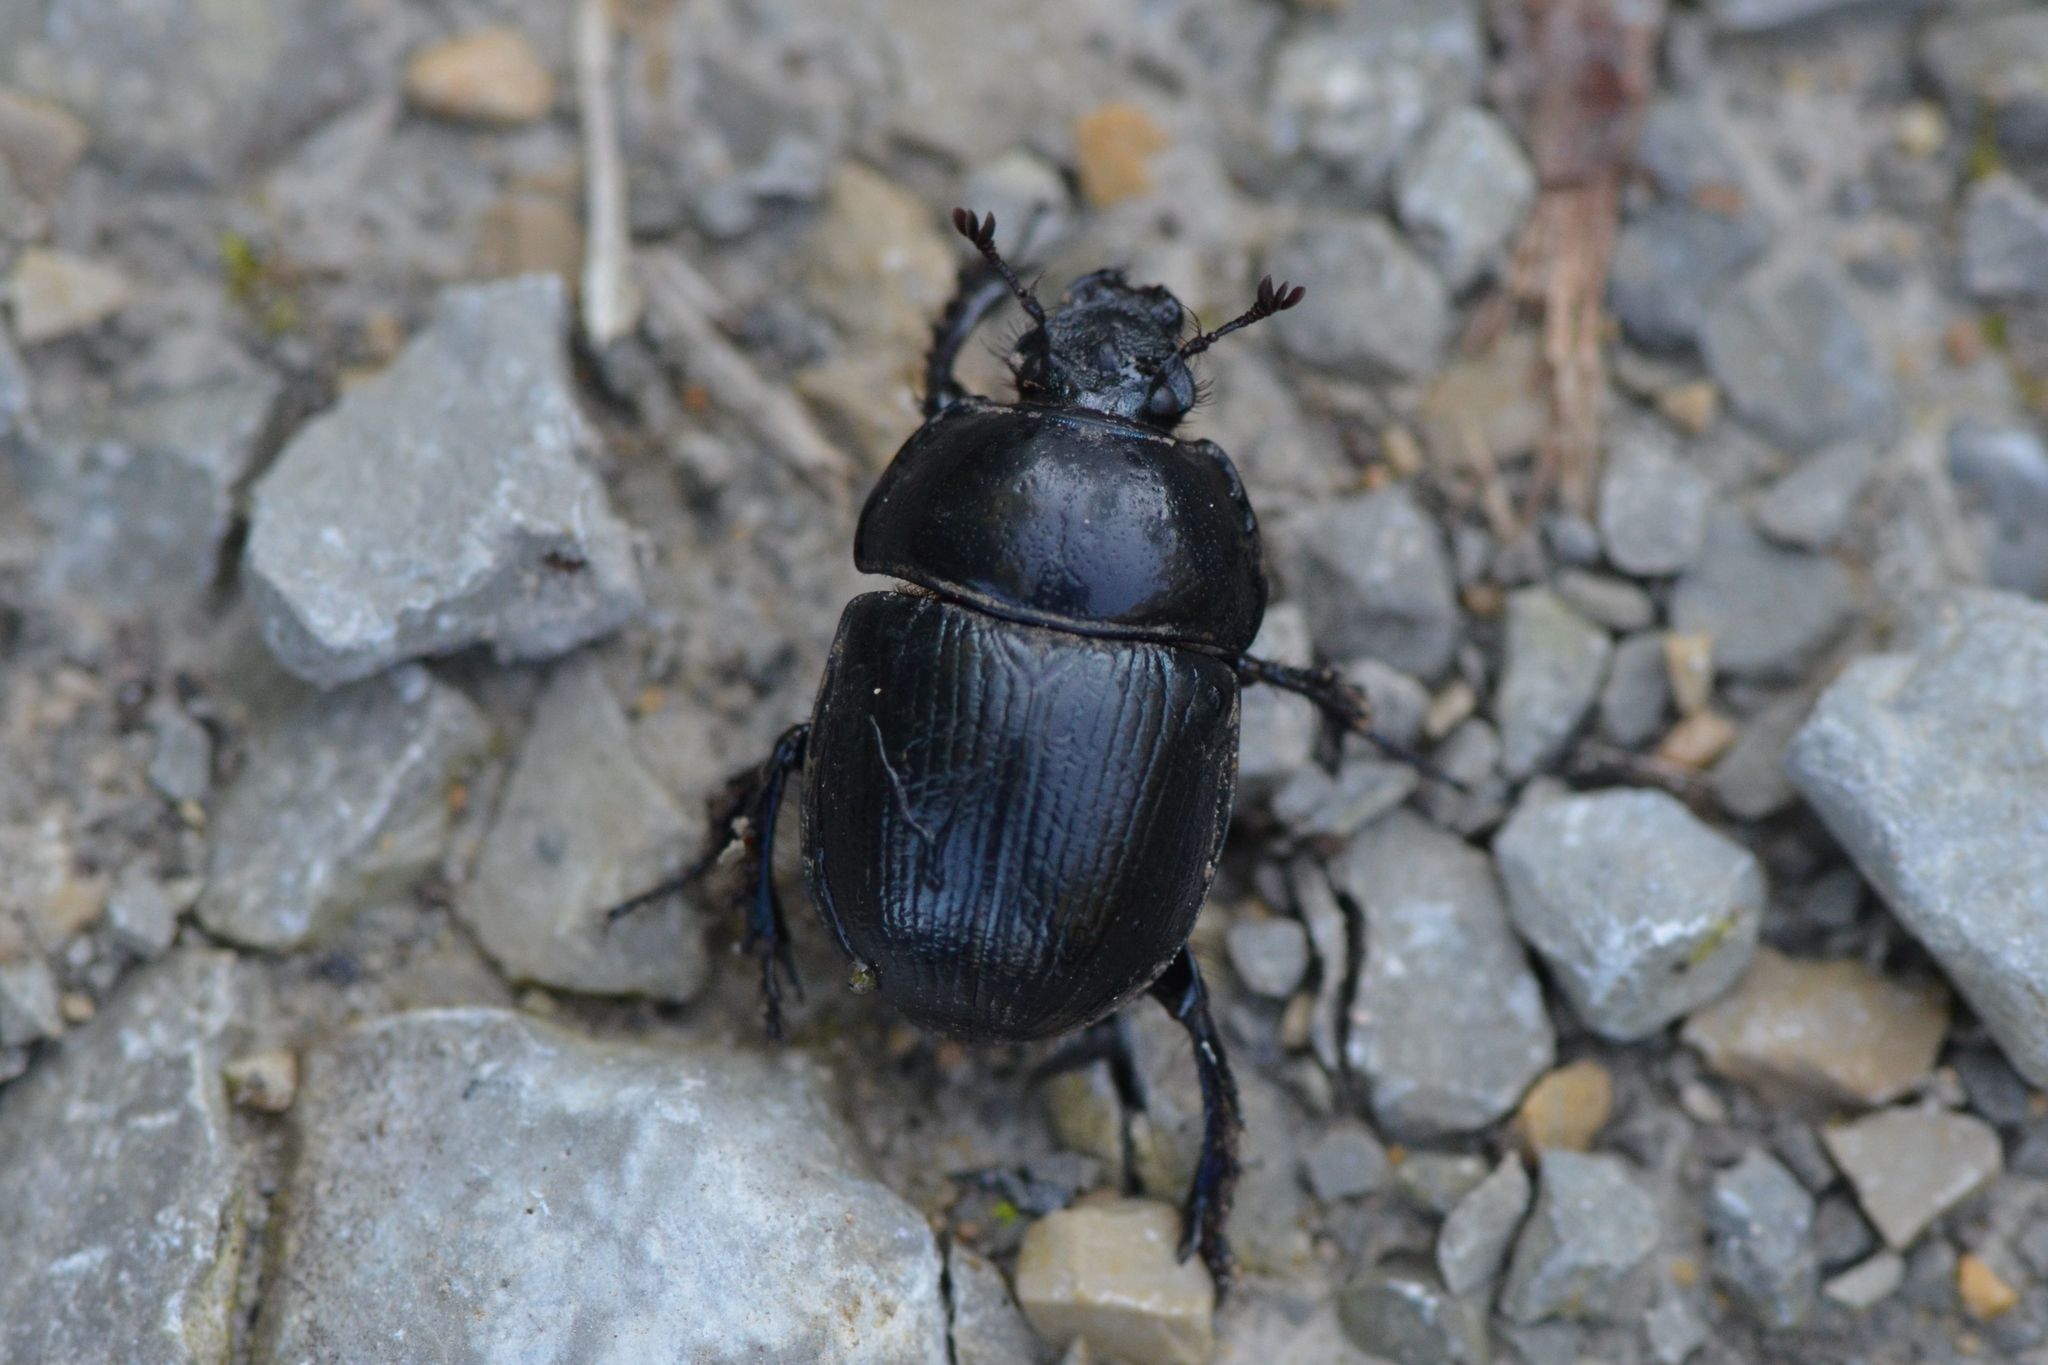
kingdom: Animalia
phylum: Arthropoda
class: Insecta
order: Coleoptera
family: Geotrupidae
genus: Anoplotrupes
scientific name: Anoplotrupes stercorosus
